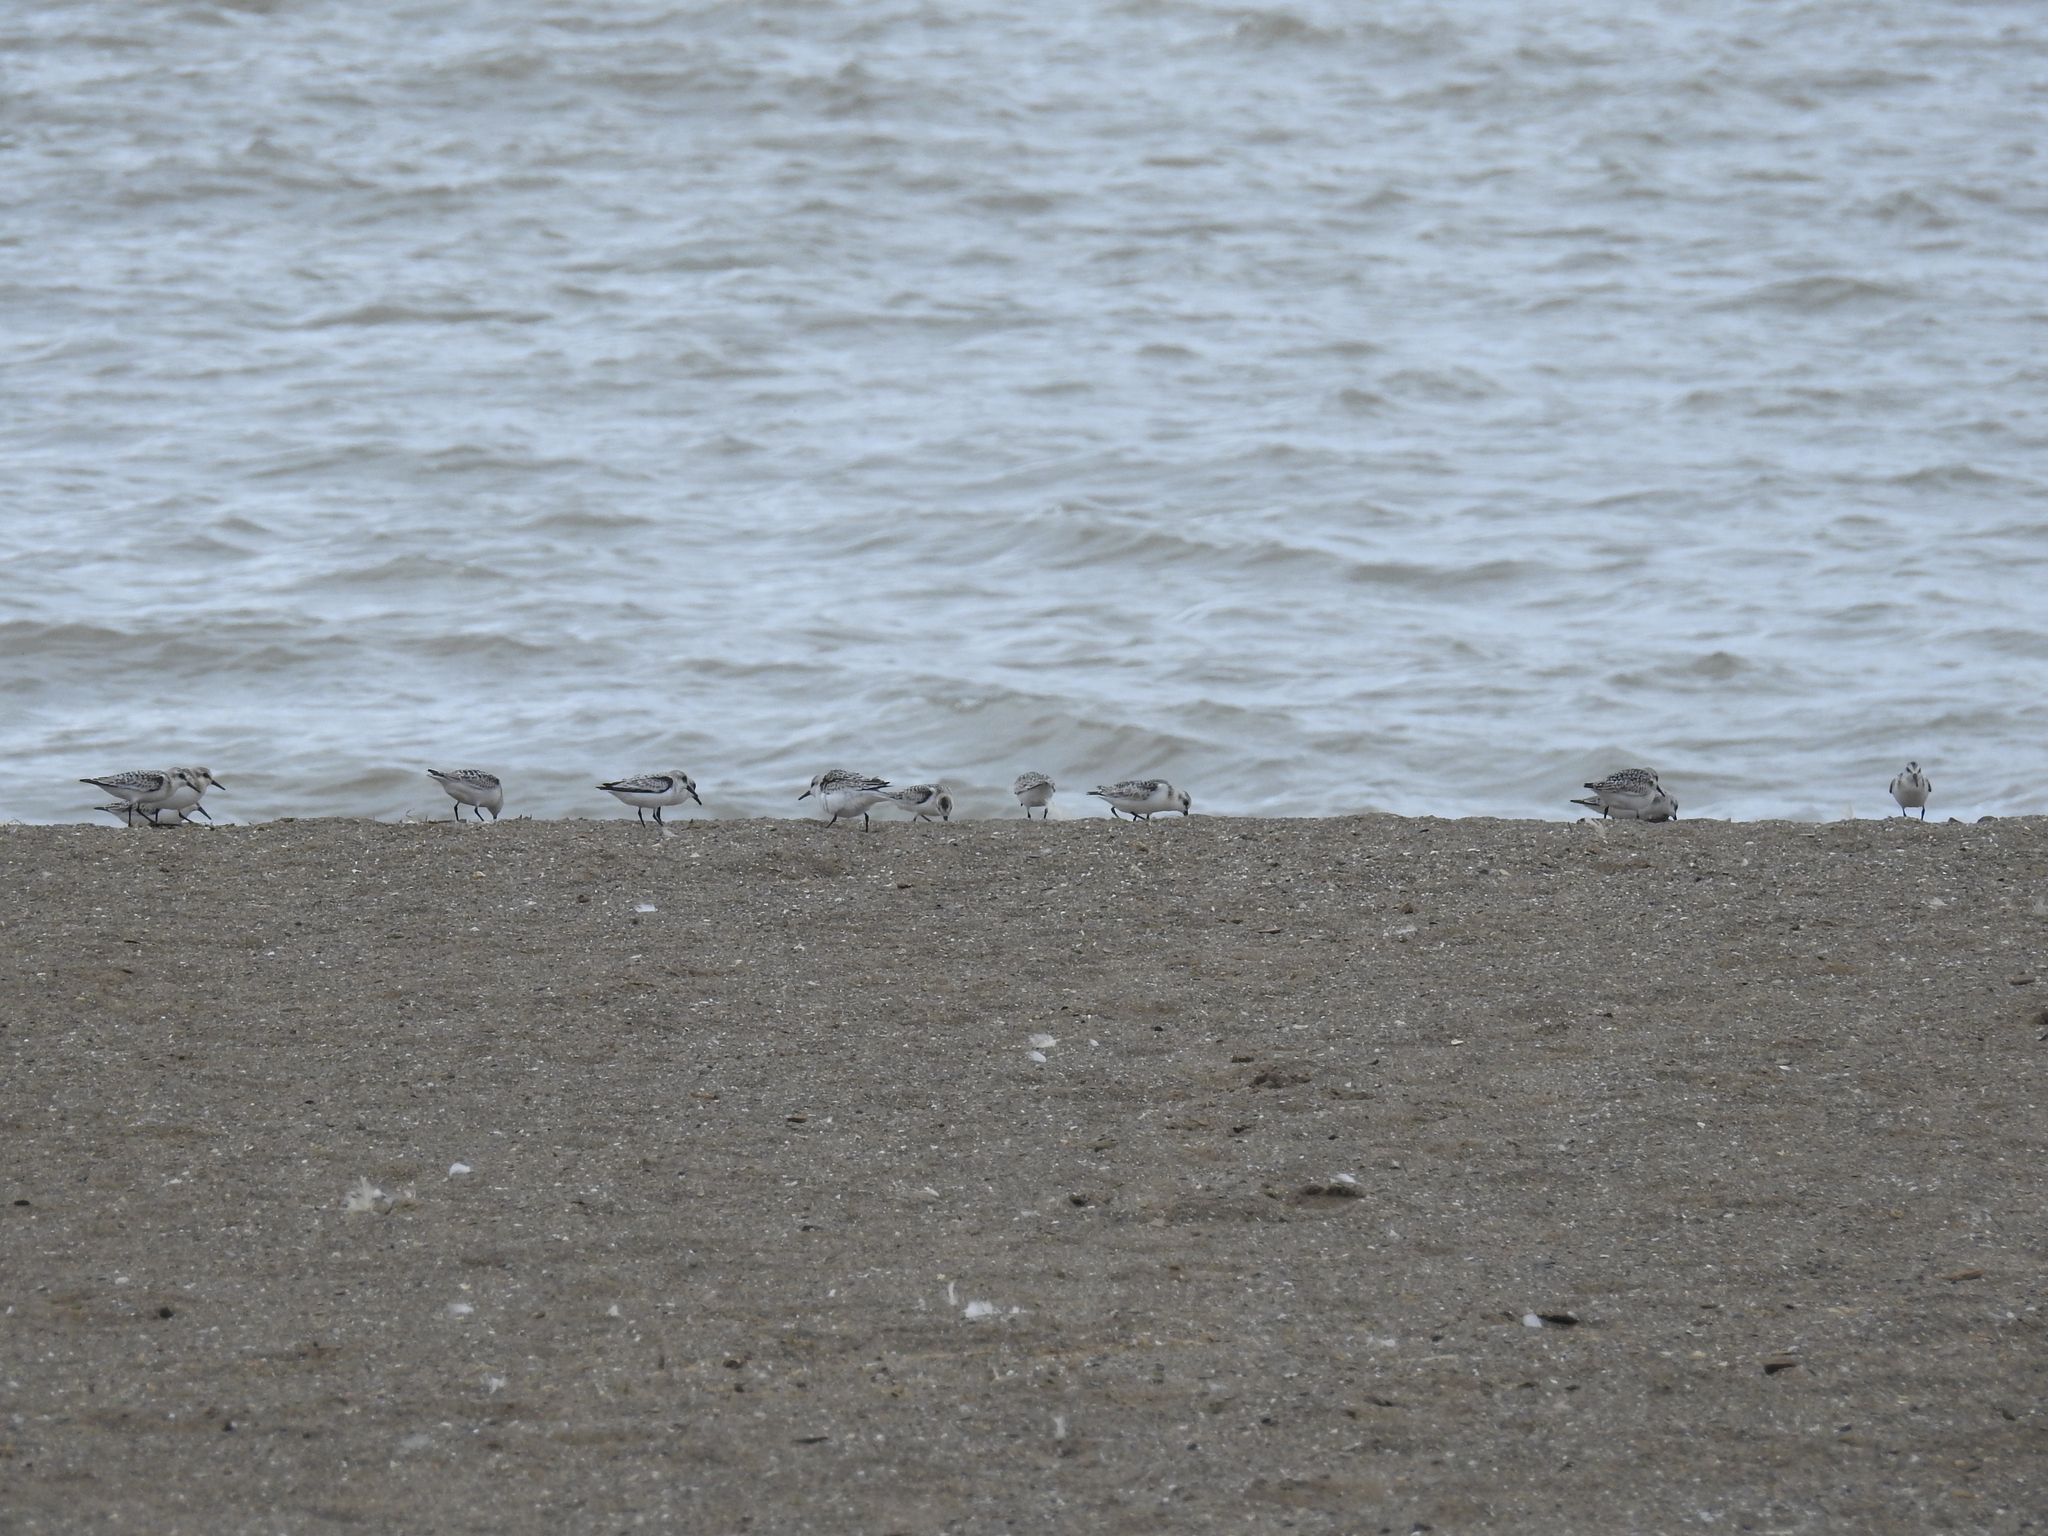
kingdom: Animalia
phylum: Chordata
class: Aves
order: Charadriiformes
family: Scolopacidae
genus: Calidris
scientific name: Calidris alba
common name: Sanderling
